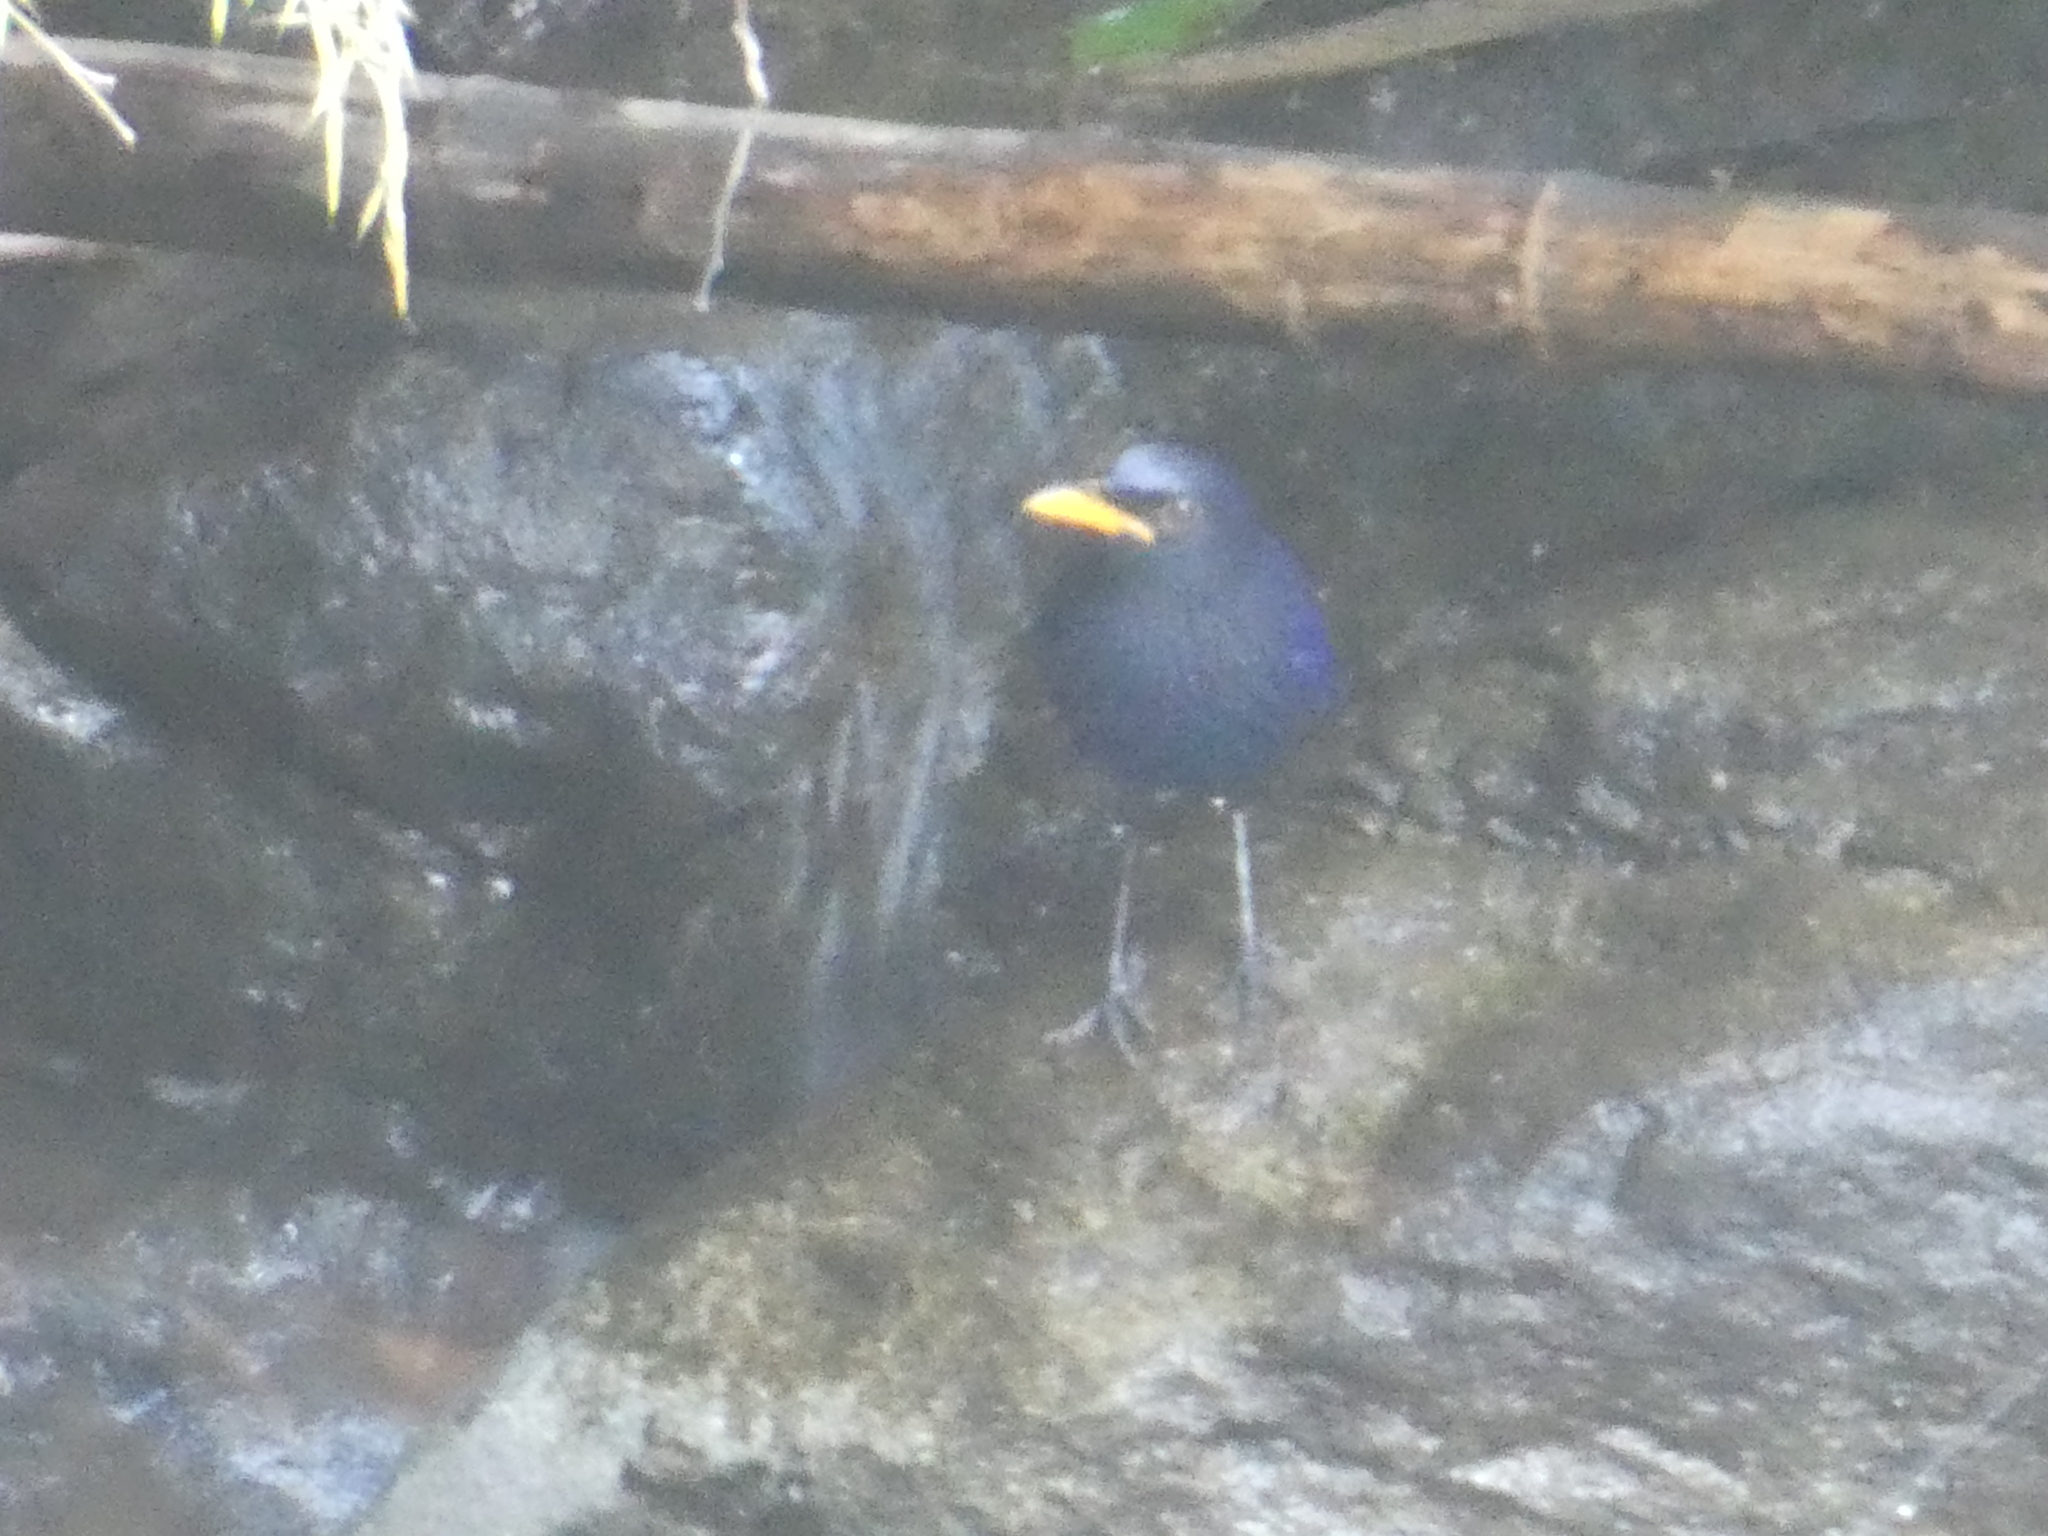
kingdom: Animalia
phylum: Chordata
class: Aves
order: Passeriformes
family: Muscicapidae
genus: Myophonus
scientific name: Myophonus caeruleus
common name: Blue whistling-thrush
